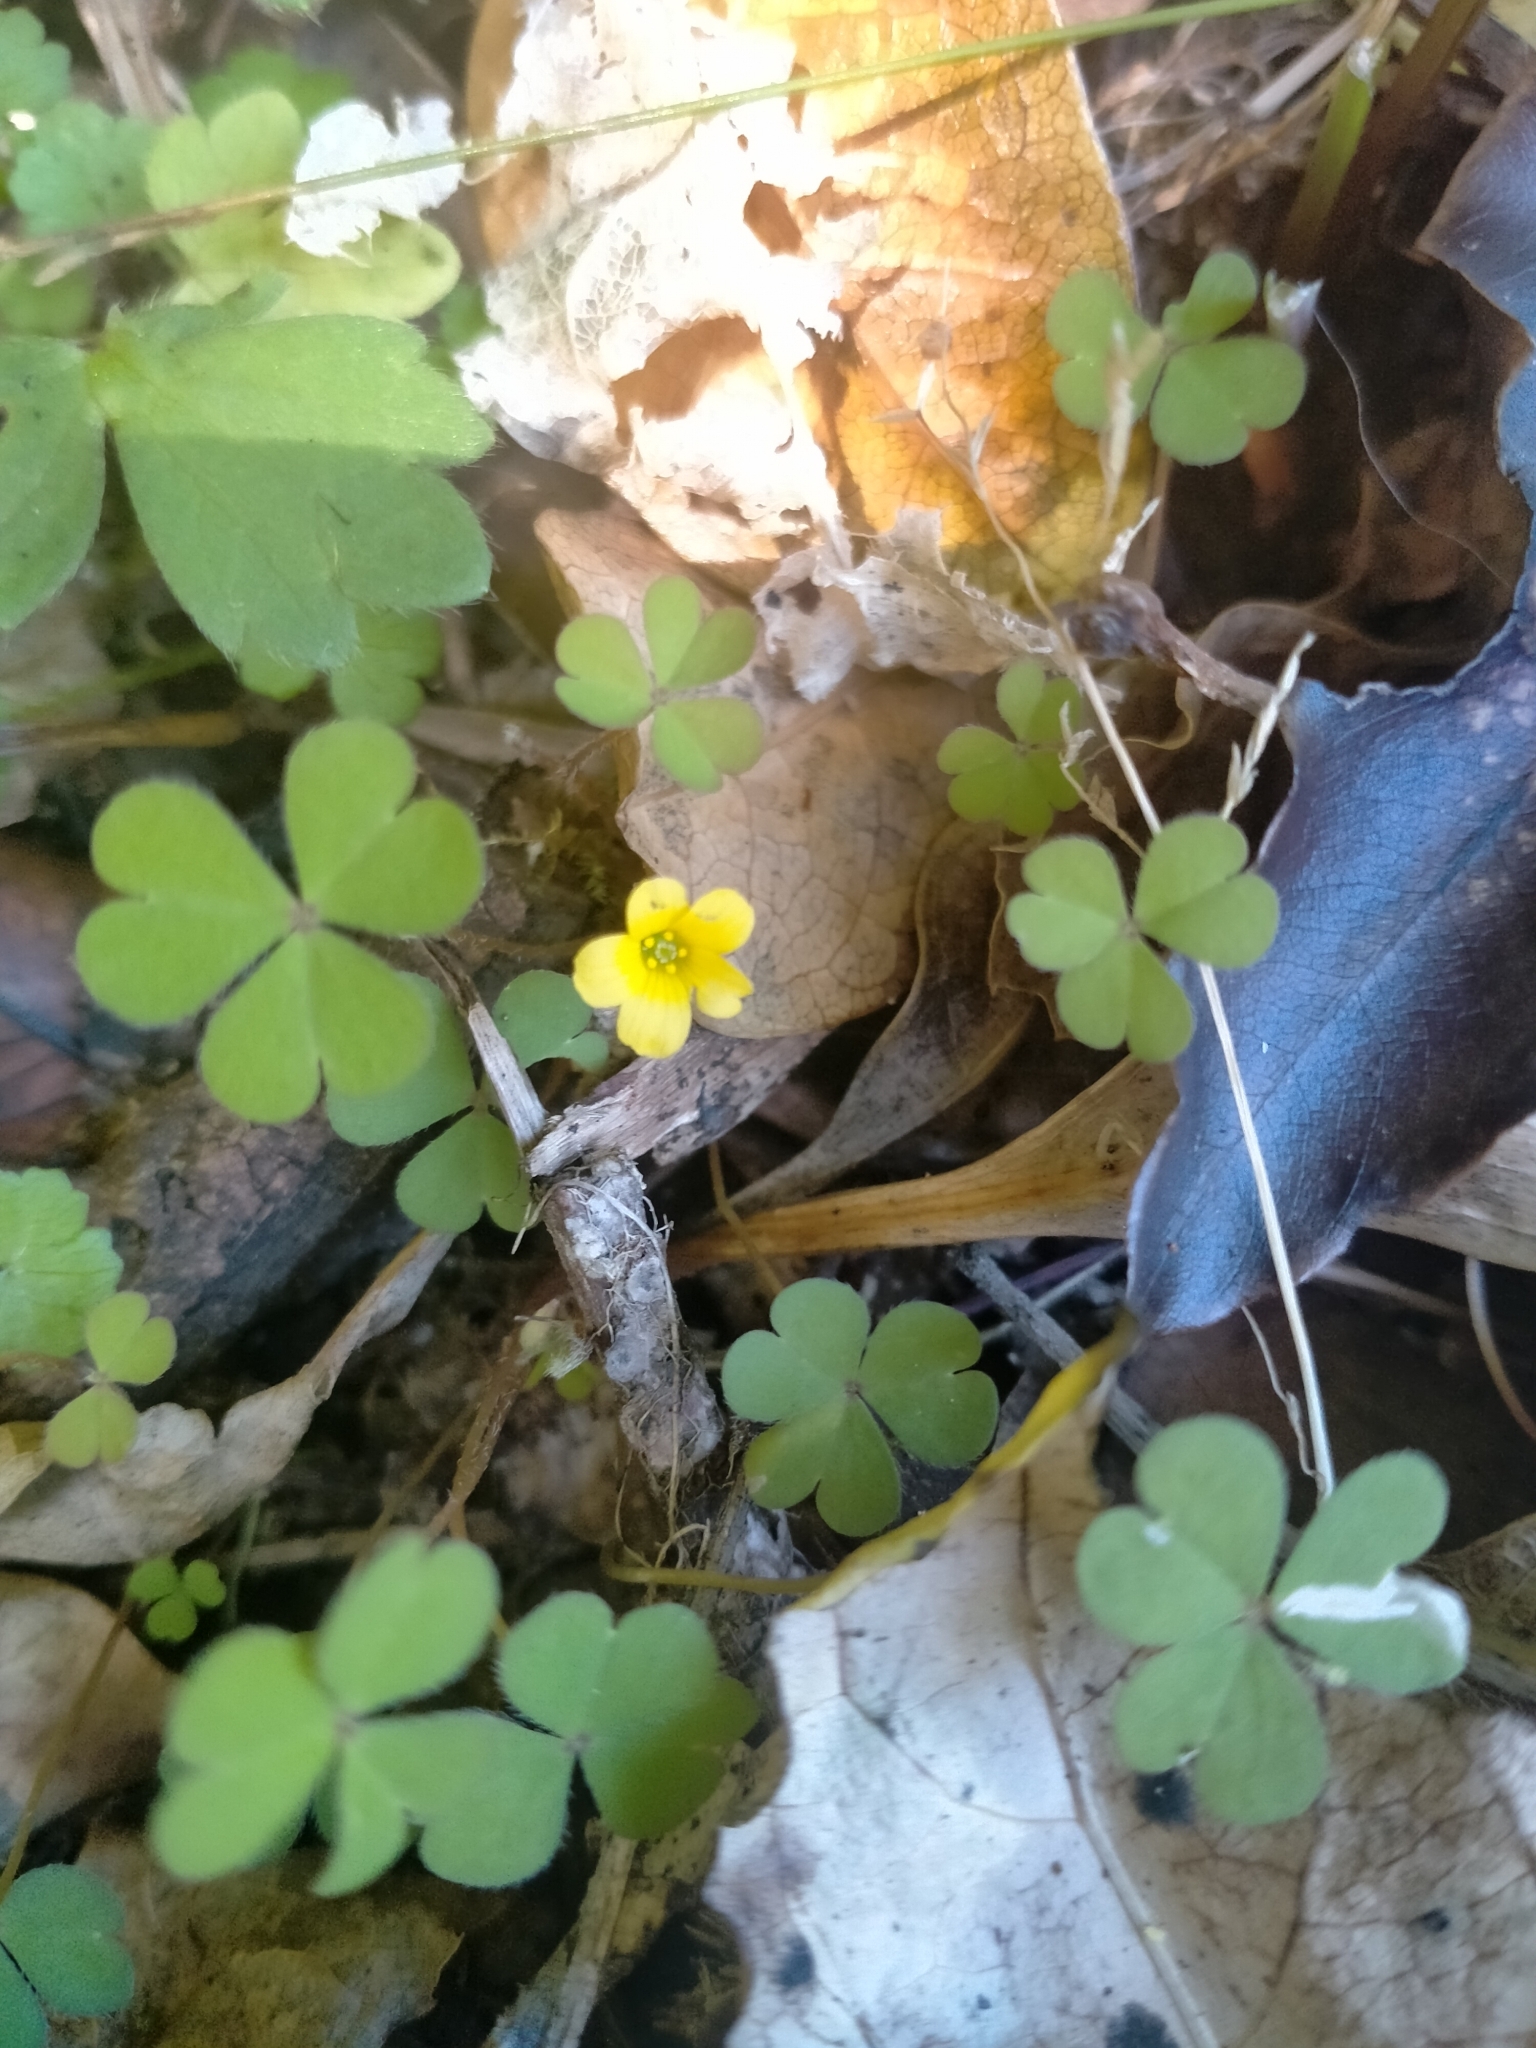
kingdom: Plantae
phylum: Tracheophyta
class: Magnoliopsida
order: Oxalidales
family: Oxalidaceae
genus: Oxalis
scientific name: Oxalis exilis
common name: Least yellow-sorrel
